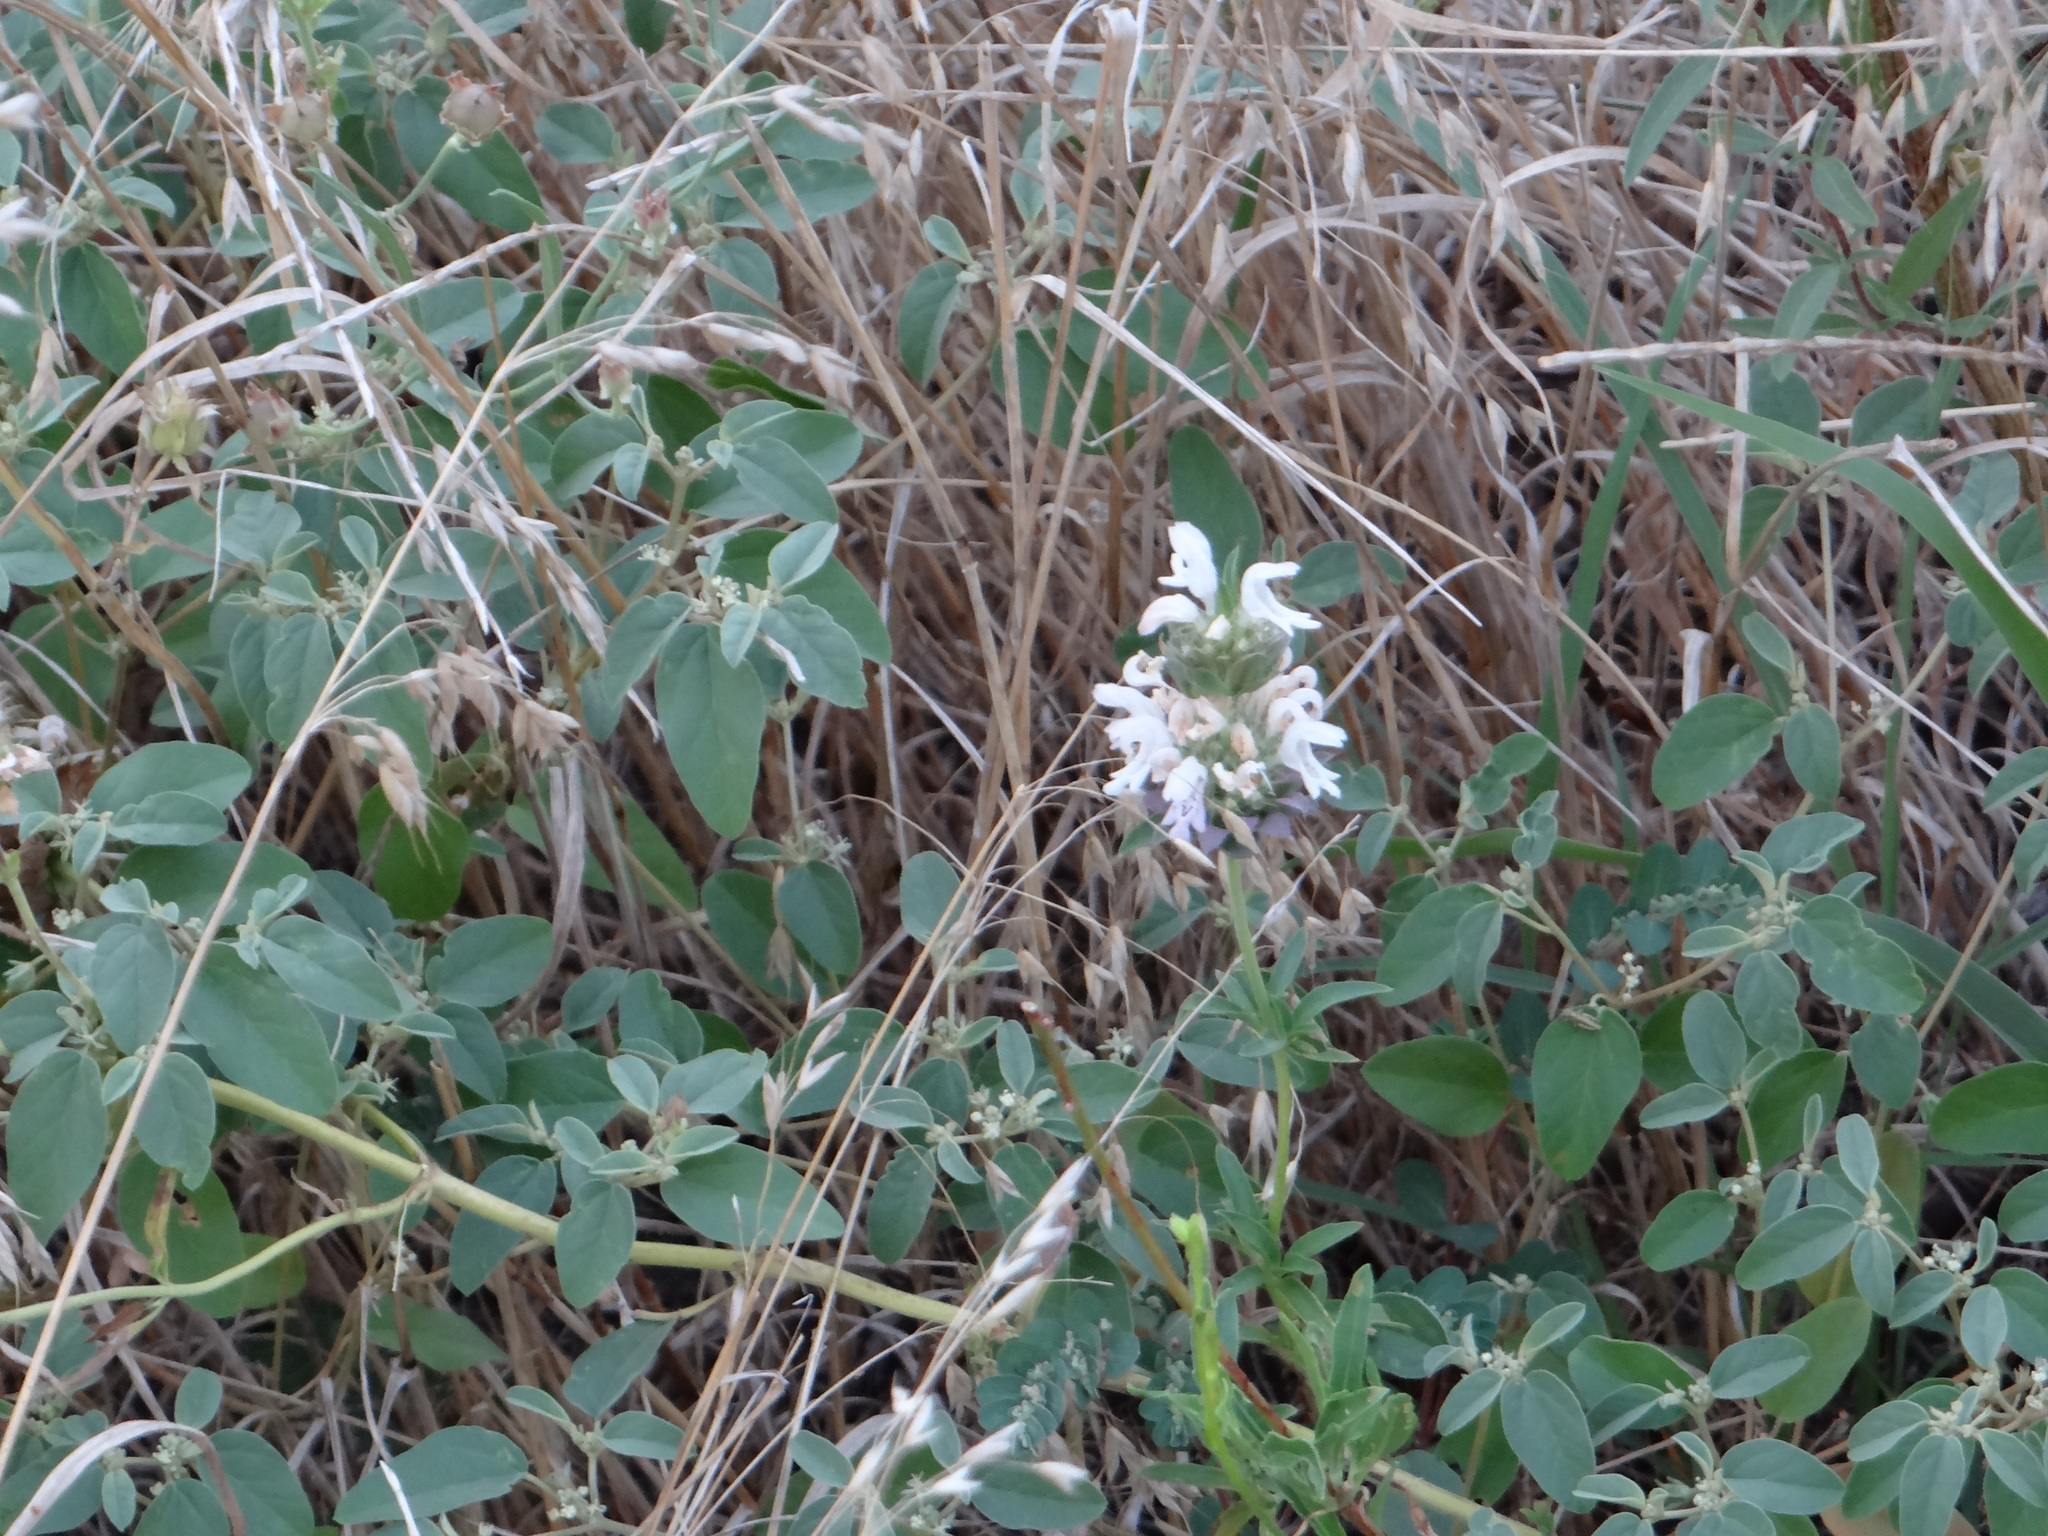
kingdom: Plantae
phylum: Tracheophyta
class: Magnoliopsida
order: Lamiales
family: Lamiaceae
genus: Monarda
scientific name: Monarda citriodora
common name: Lemon beebalm
